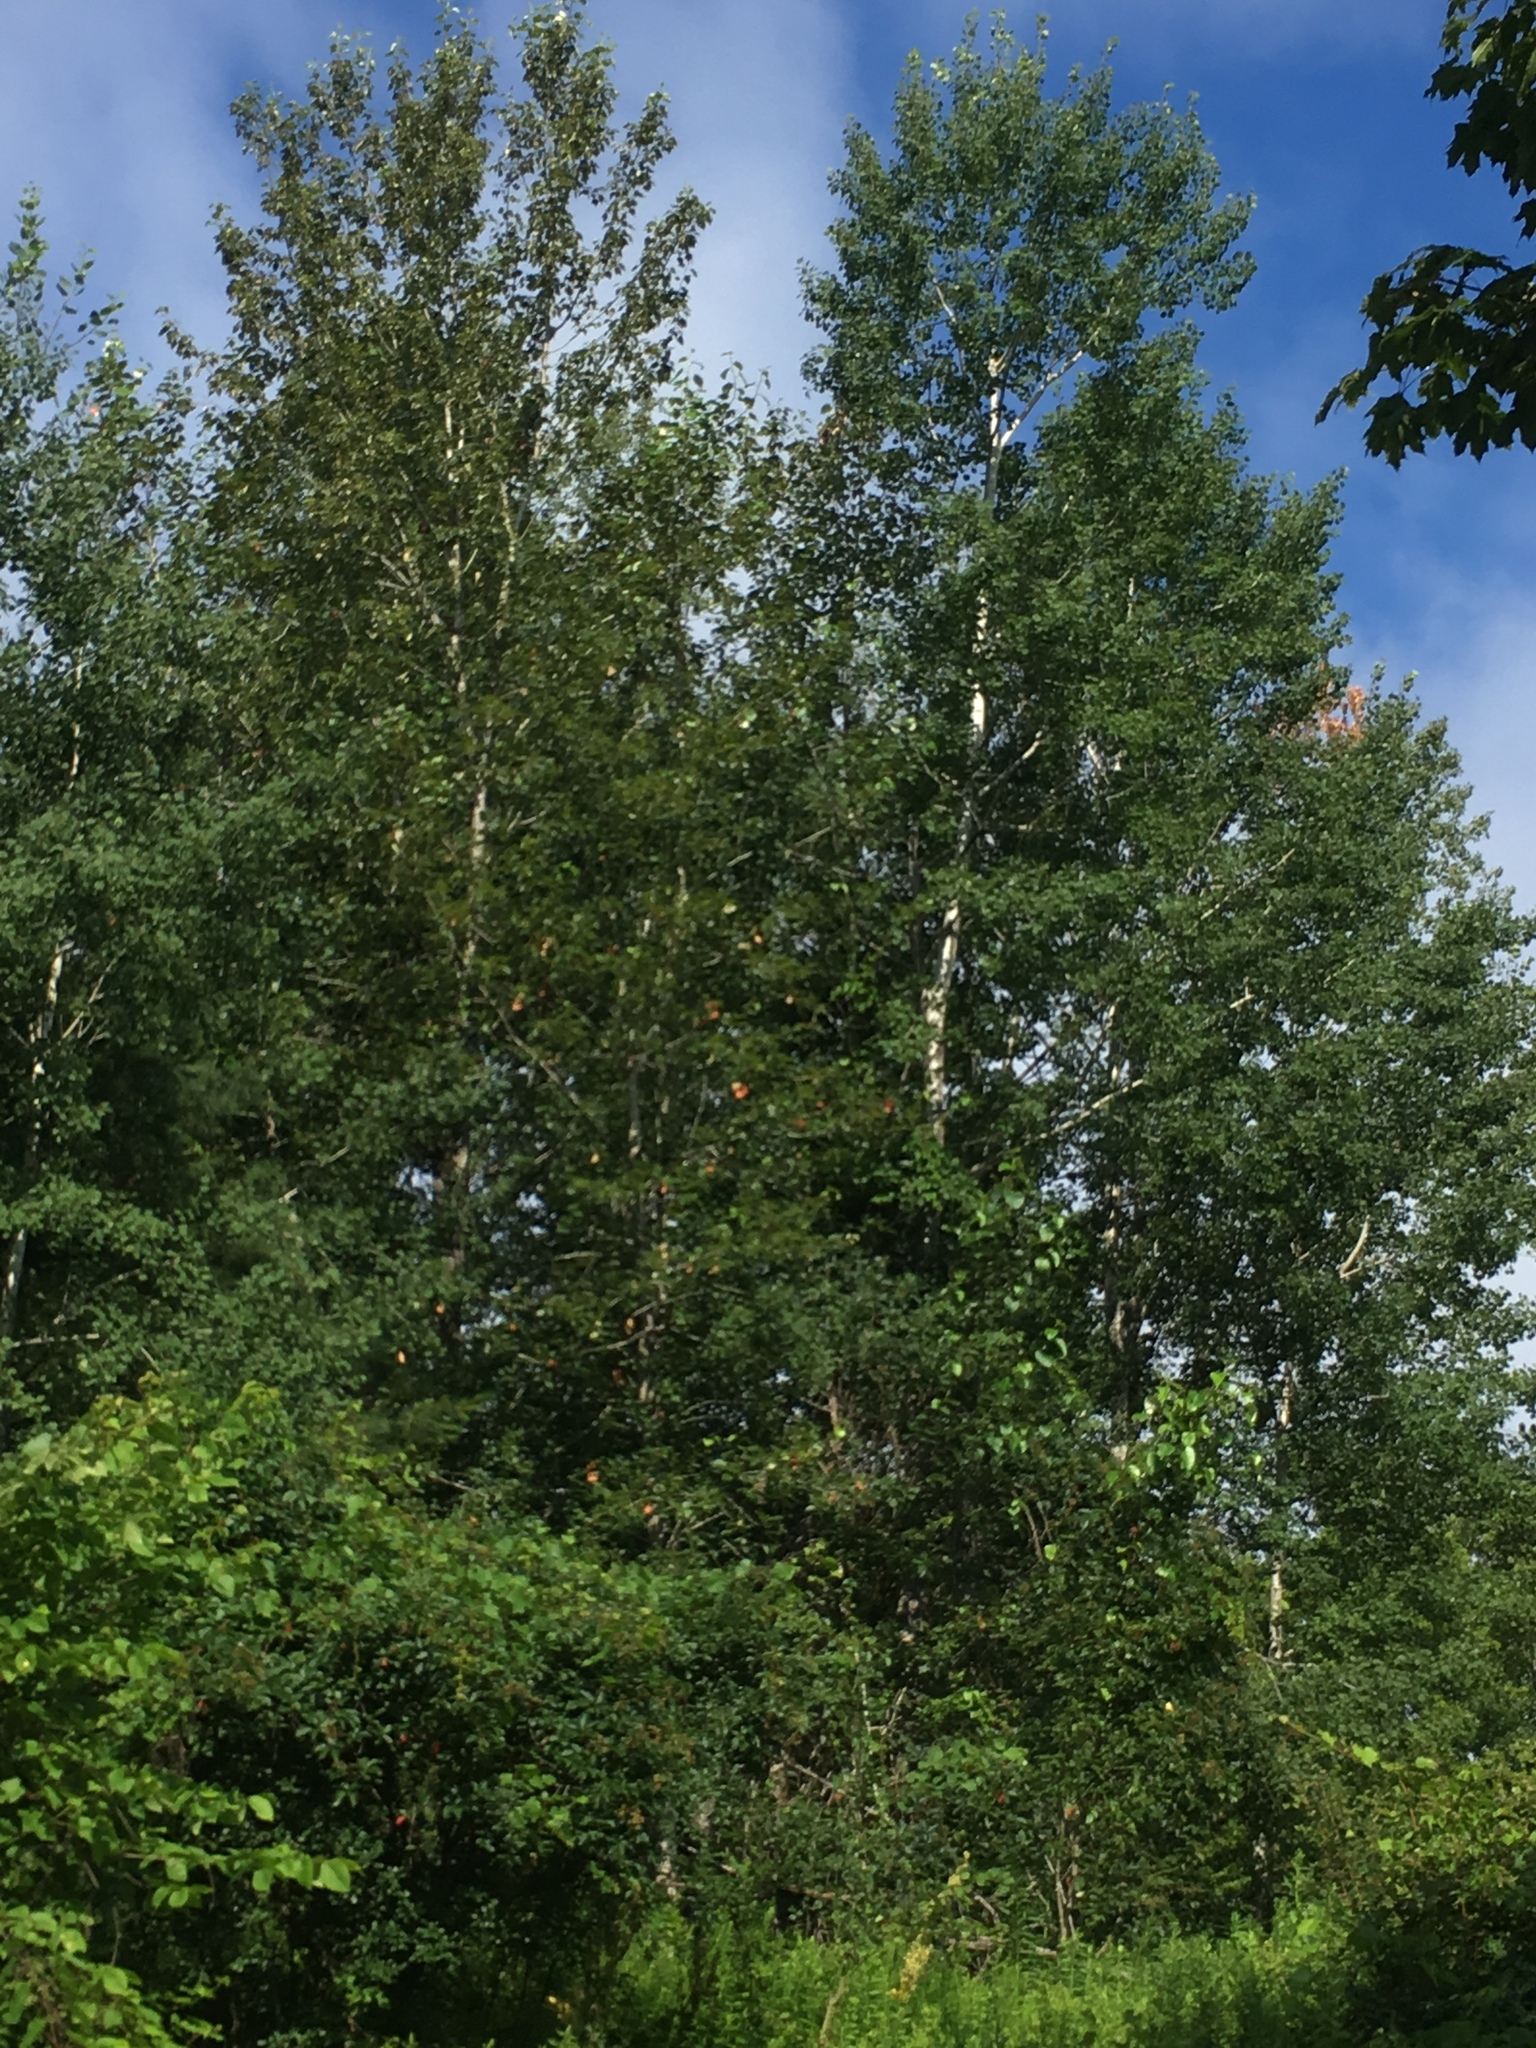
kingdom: Plantae
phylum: Tracheophyta
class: Magnoliopsida
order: Malpighiales
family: Salicaceae
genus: Populus
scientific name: Populus tremuloides
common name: Quaking aspen
